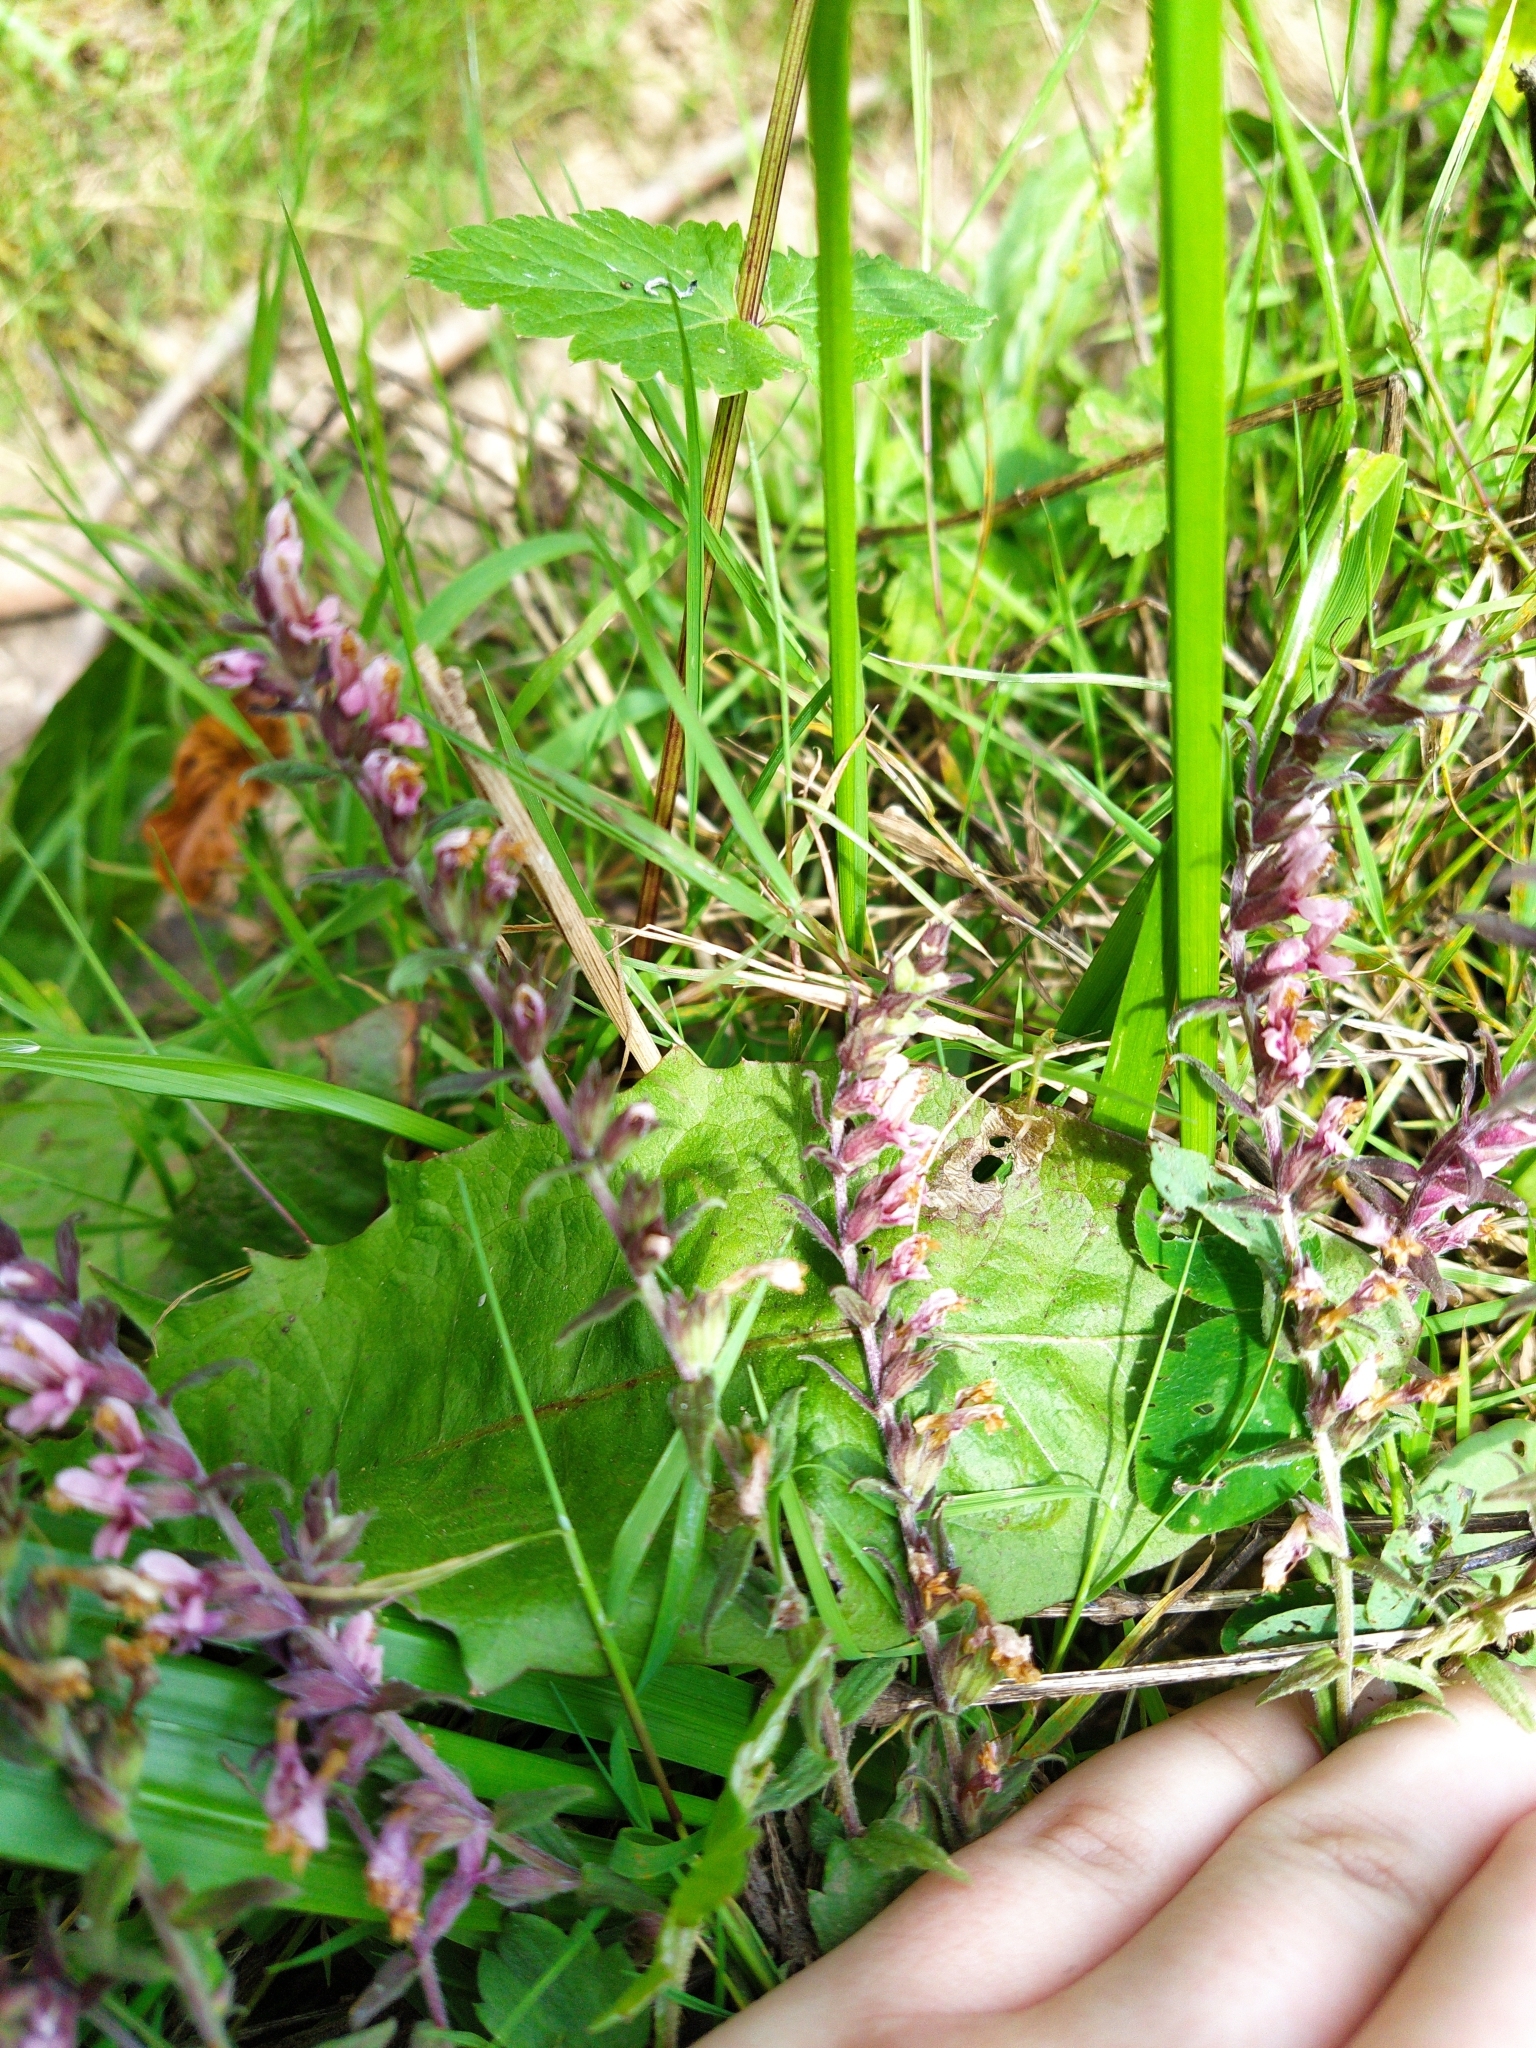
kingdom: Plantae
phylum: Tracheophyta
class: Magnoliopsida
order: Lamiales
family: Orobanchaceae
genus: Odontites
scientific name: Odontites vulgaris
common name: Broomrape
